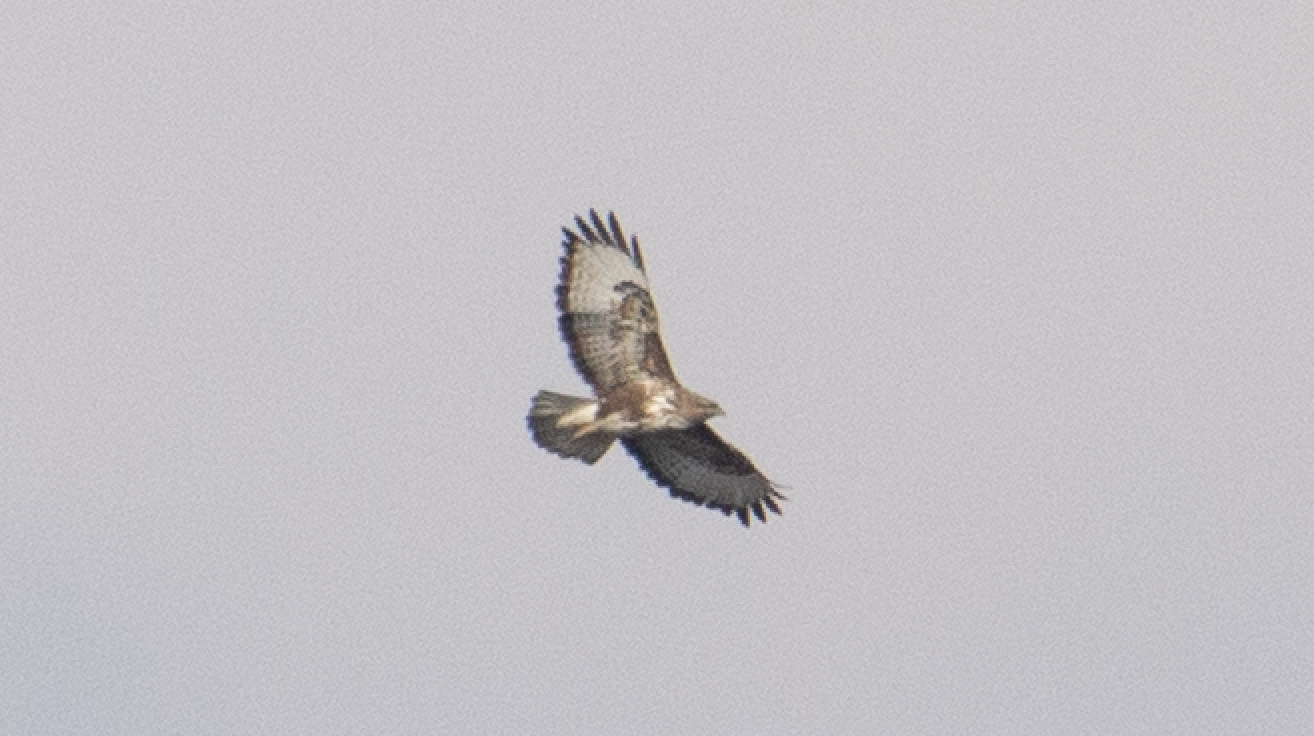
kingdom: Animalia
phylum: Chordata
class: Aves
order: Accipitriformes
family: Accipitridae
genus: Buteo
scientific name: Buteo buteo
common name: Common buzzard
